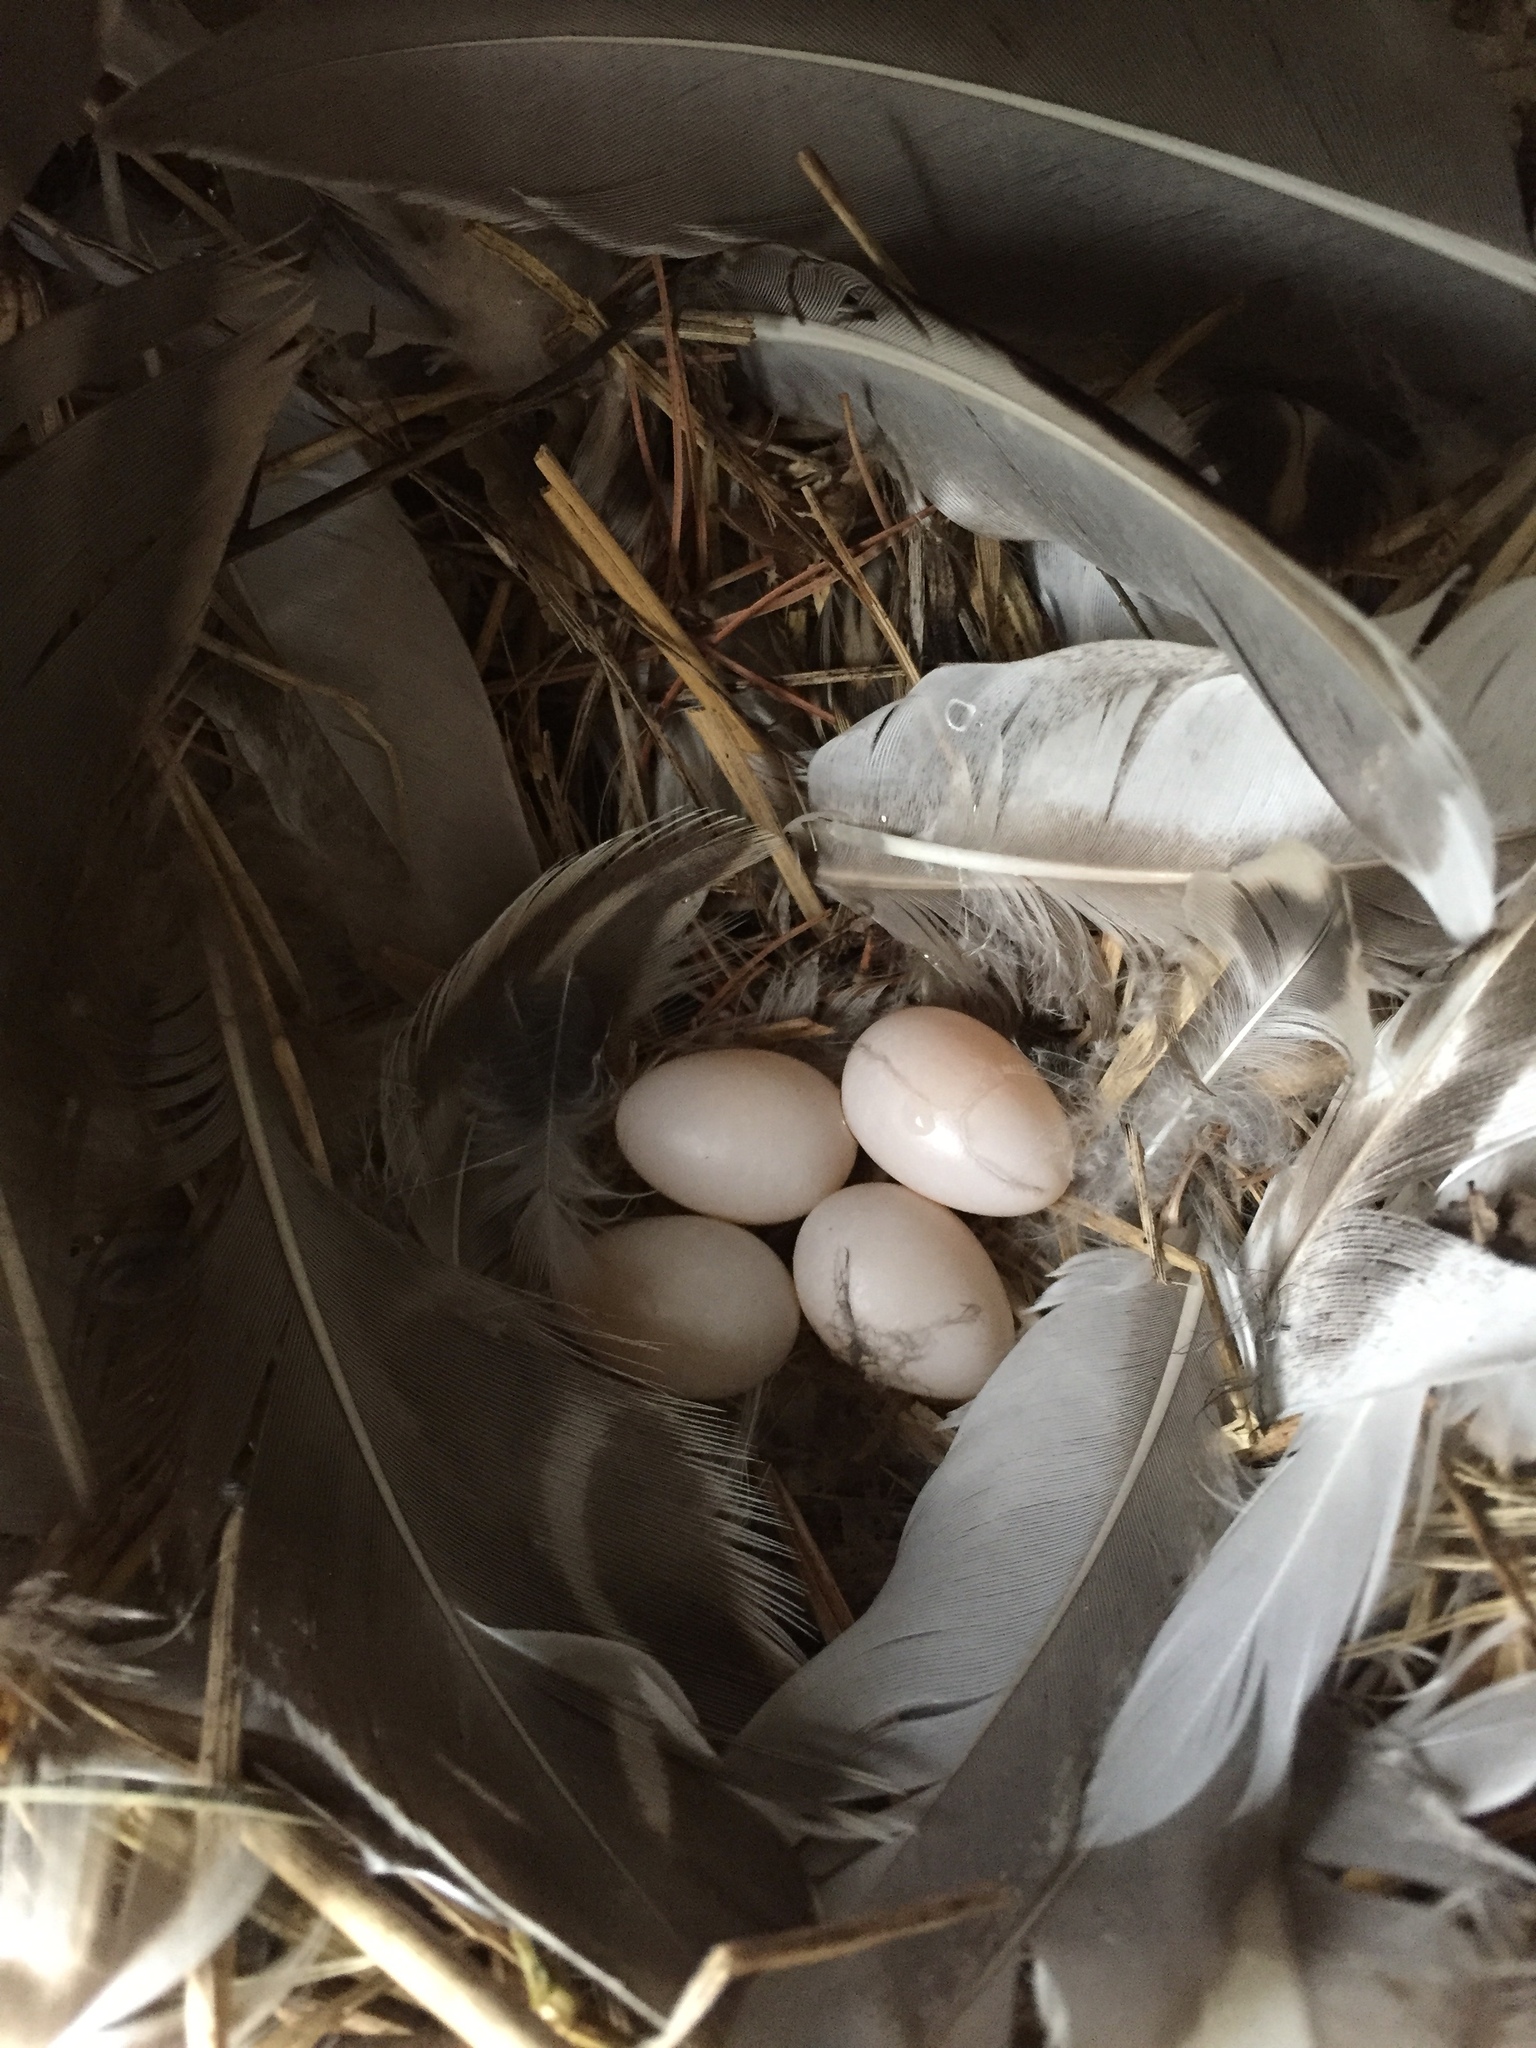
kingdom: Animalia
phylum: Chordata
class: Aves
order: Passeriformes
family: Hirundinidae
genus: Tachycineta
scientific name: Tachycineta bicolor
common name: Tree swallow
